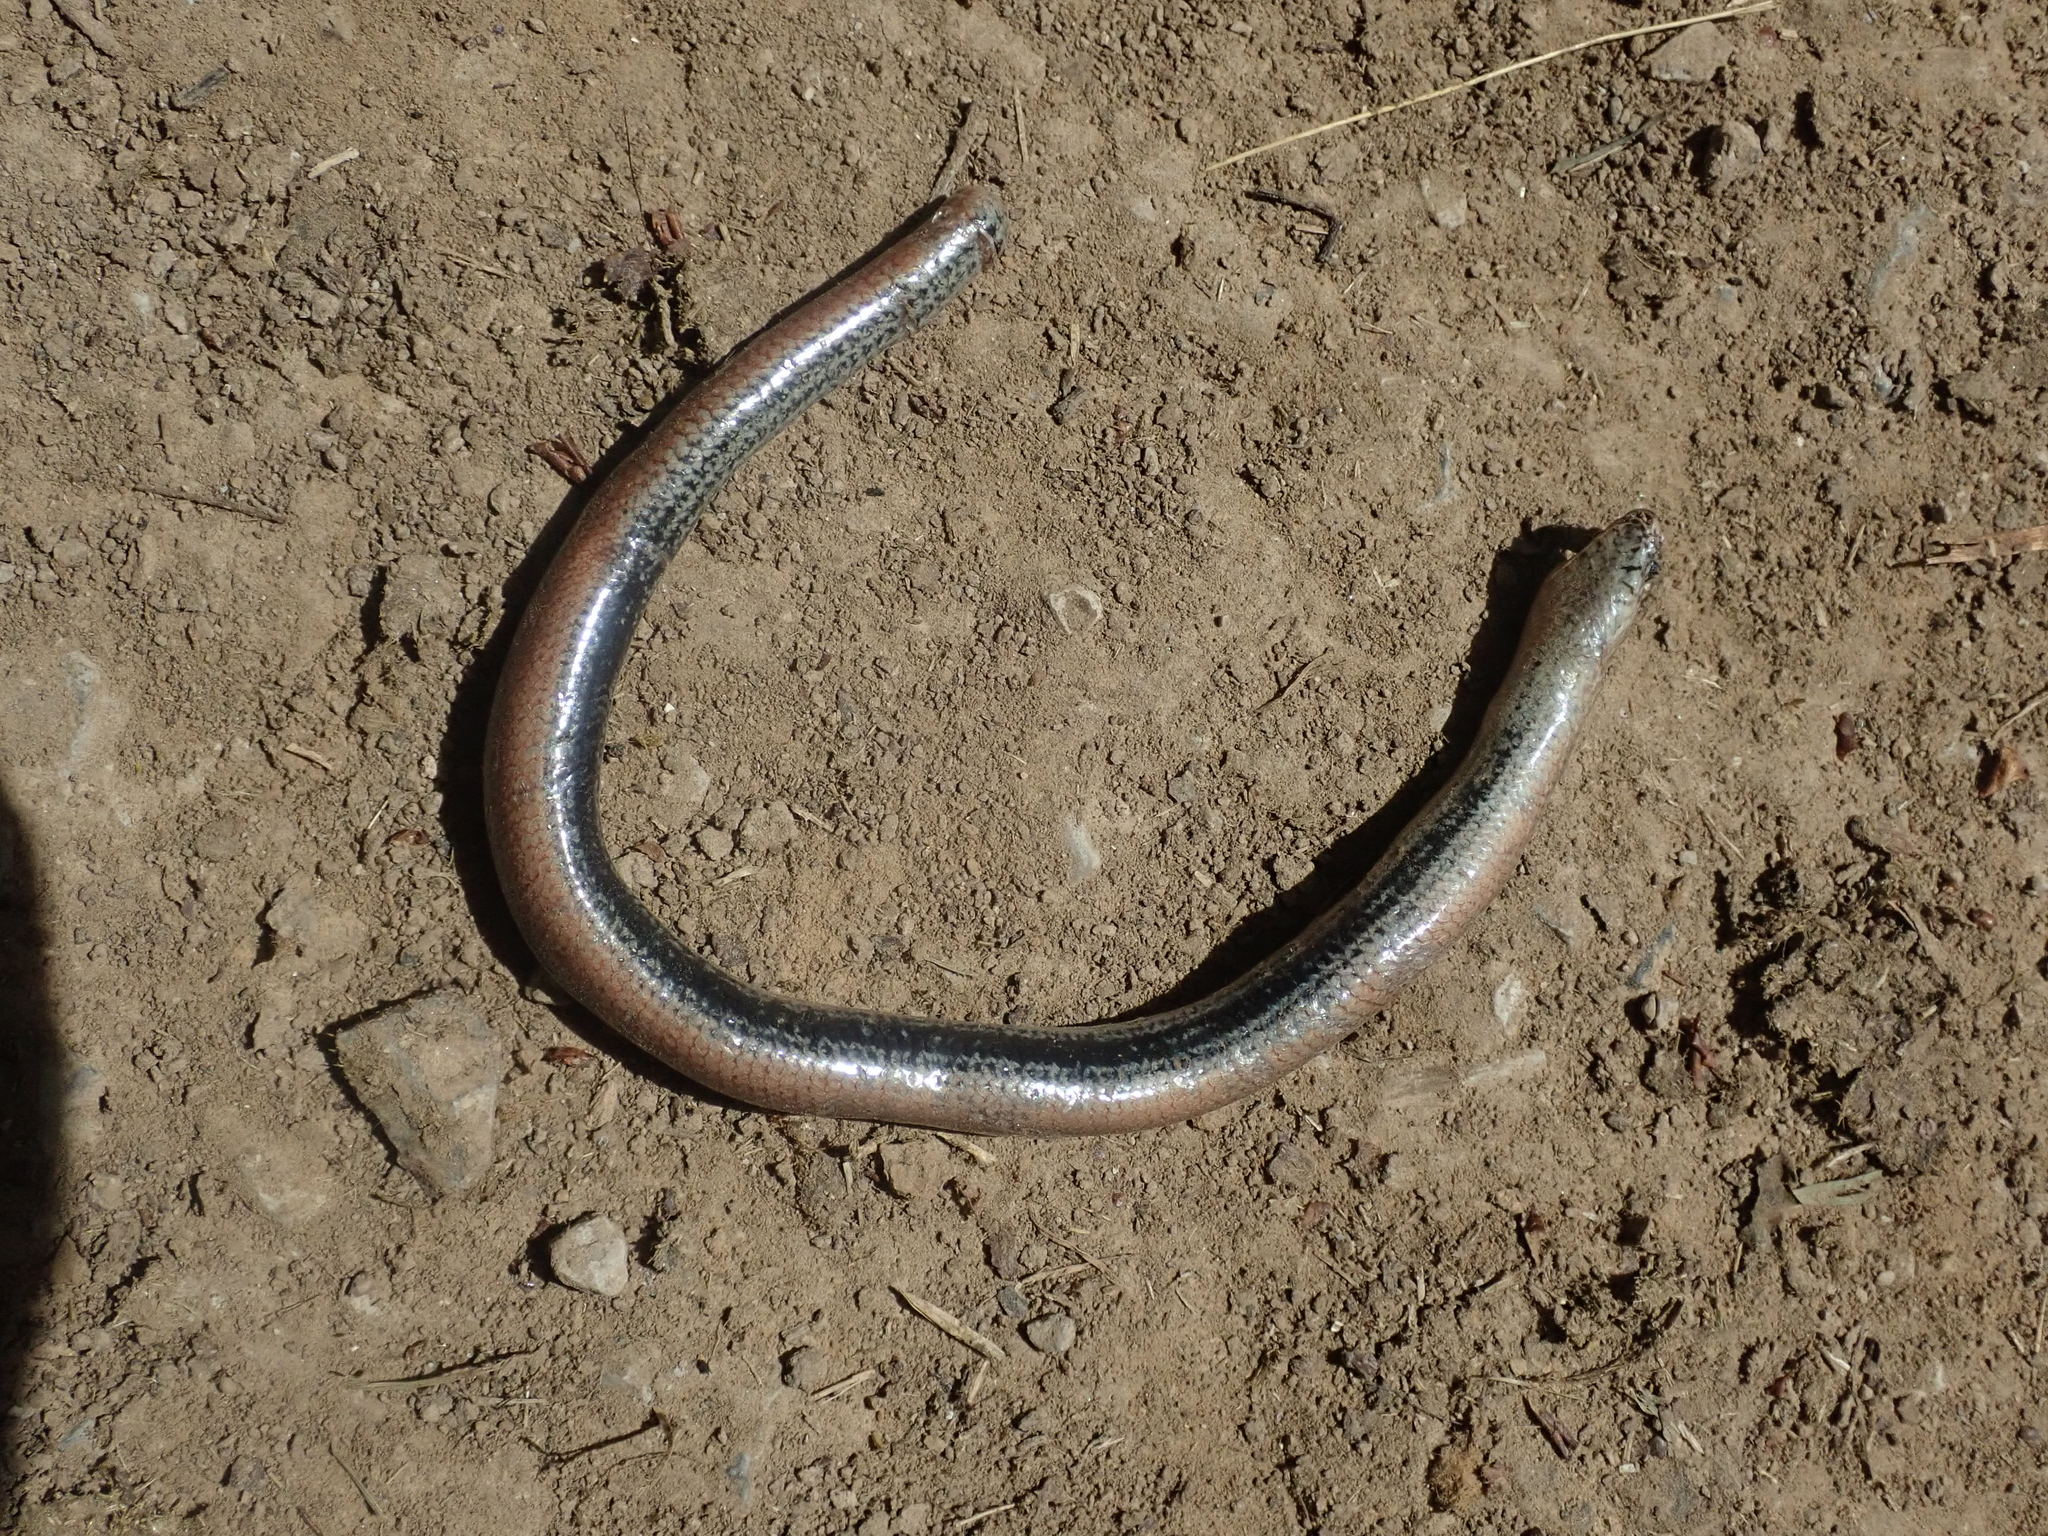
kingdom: Animalia
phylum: Chordata
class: Squamata
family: Anguidae
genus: Anguis
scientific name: Anguis fragilis
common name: Slow worm
